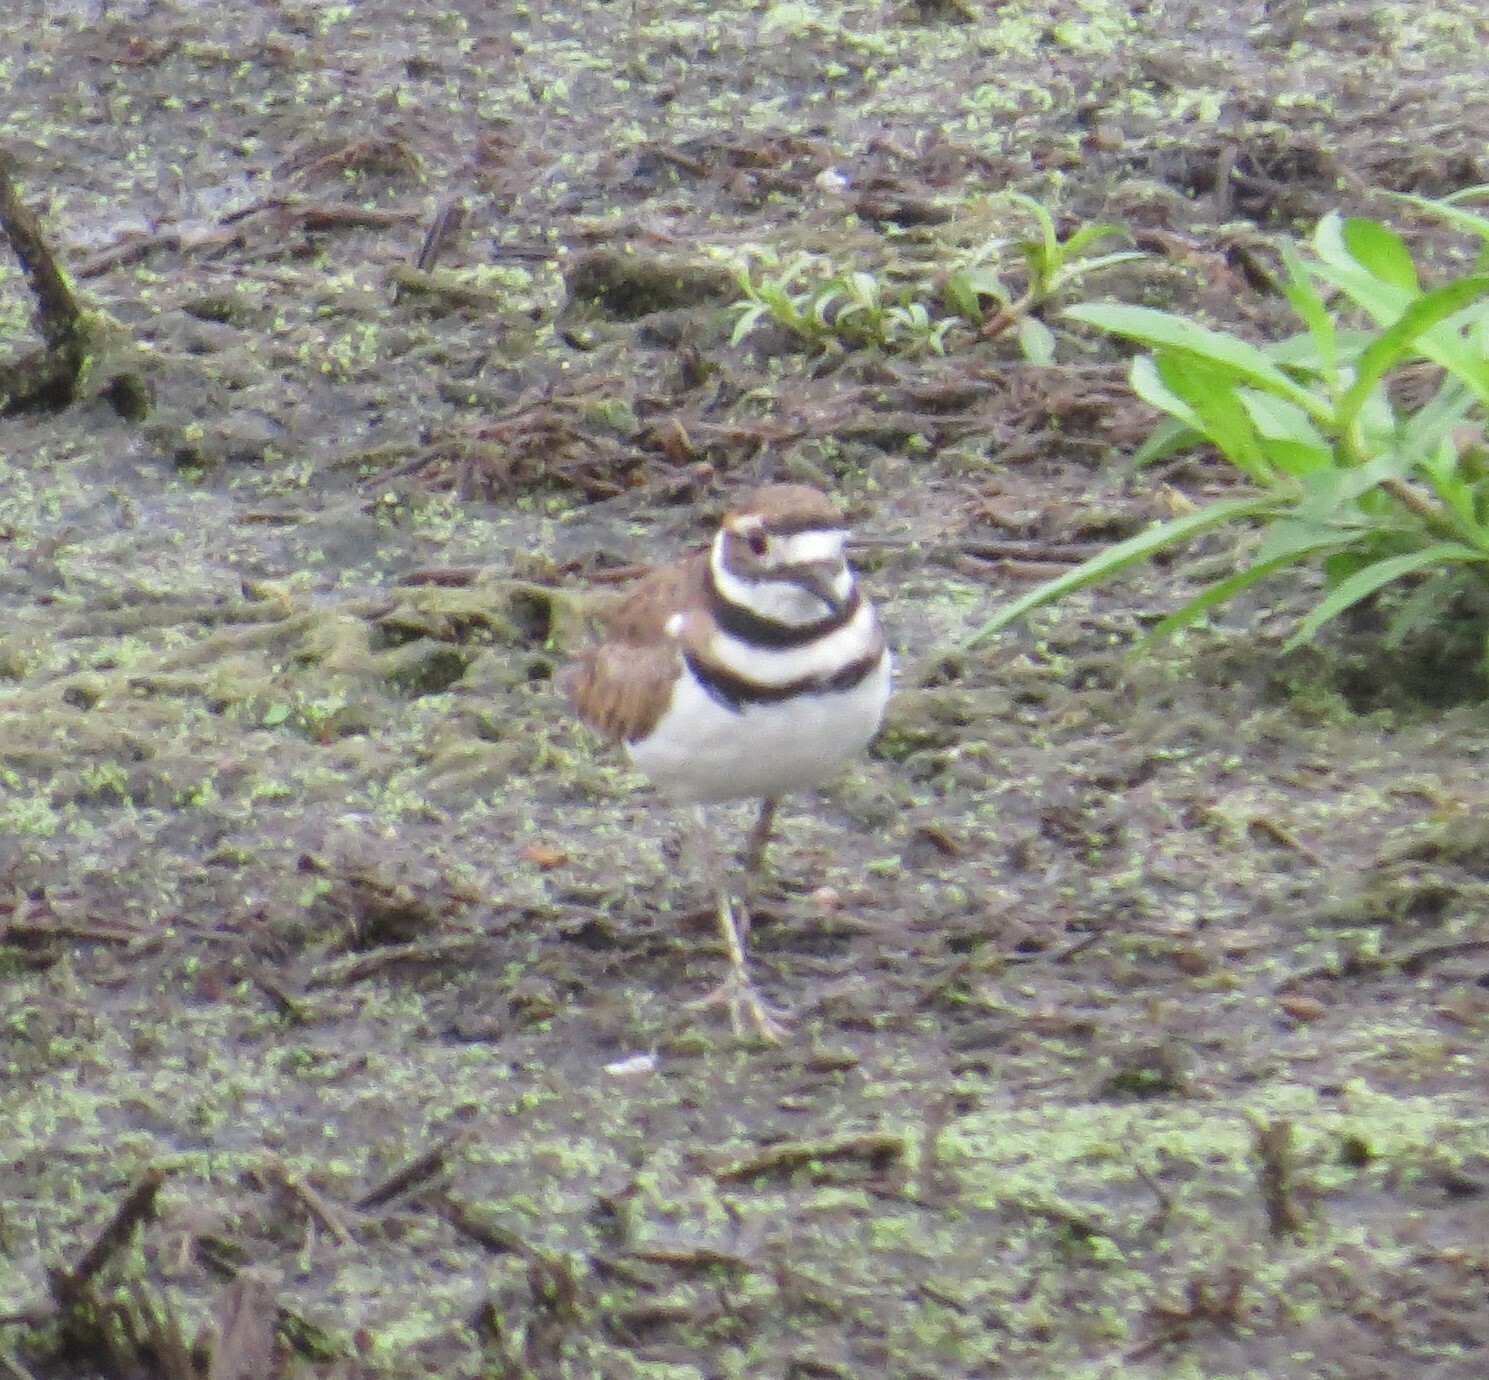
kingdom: Animalia
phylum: Chordata
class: Aves
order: Charadriiformes
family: Charadriidae
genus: Charadrius
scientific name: Charadrius vociferus
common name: Killdeer
